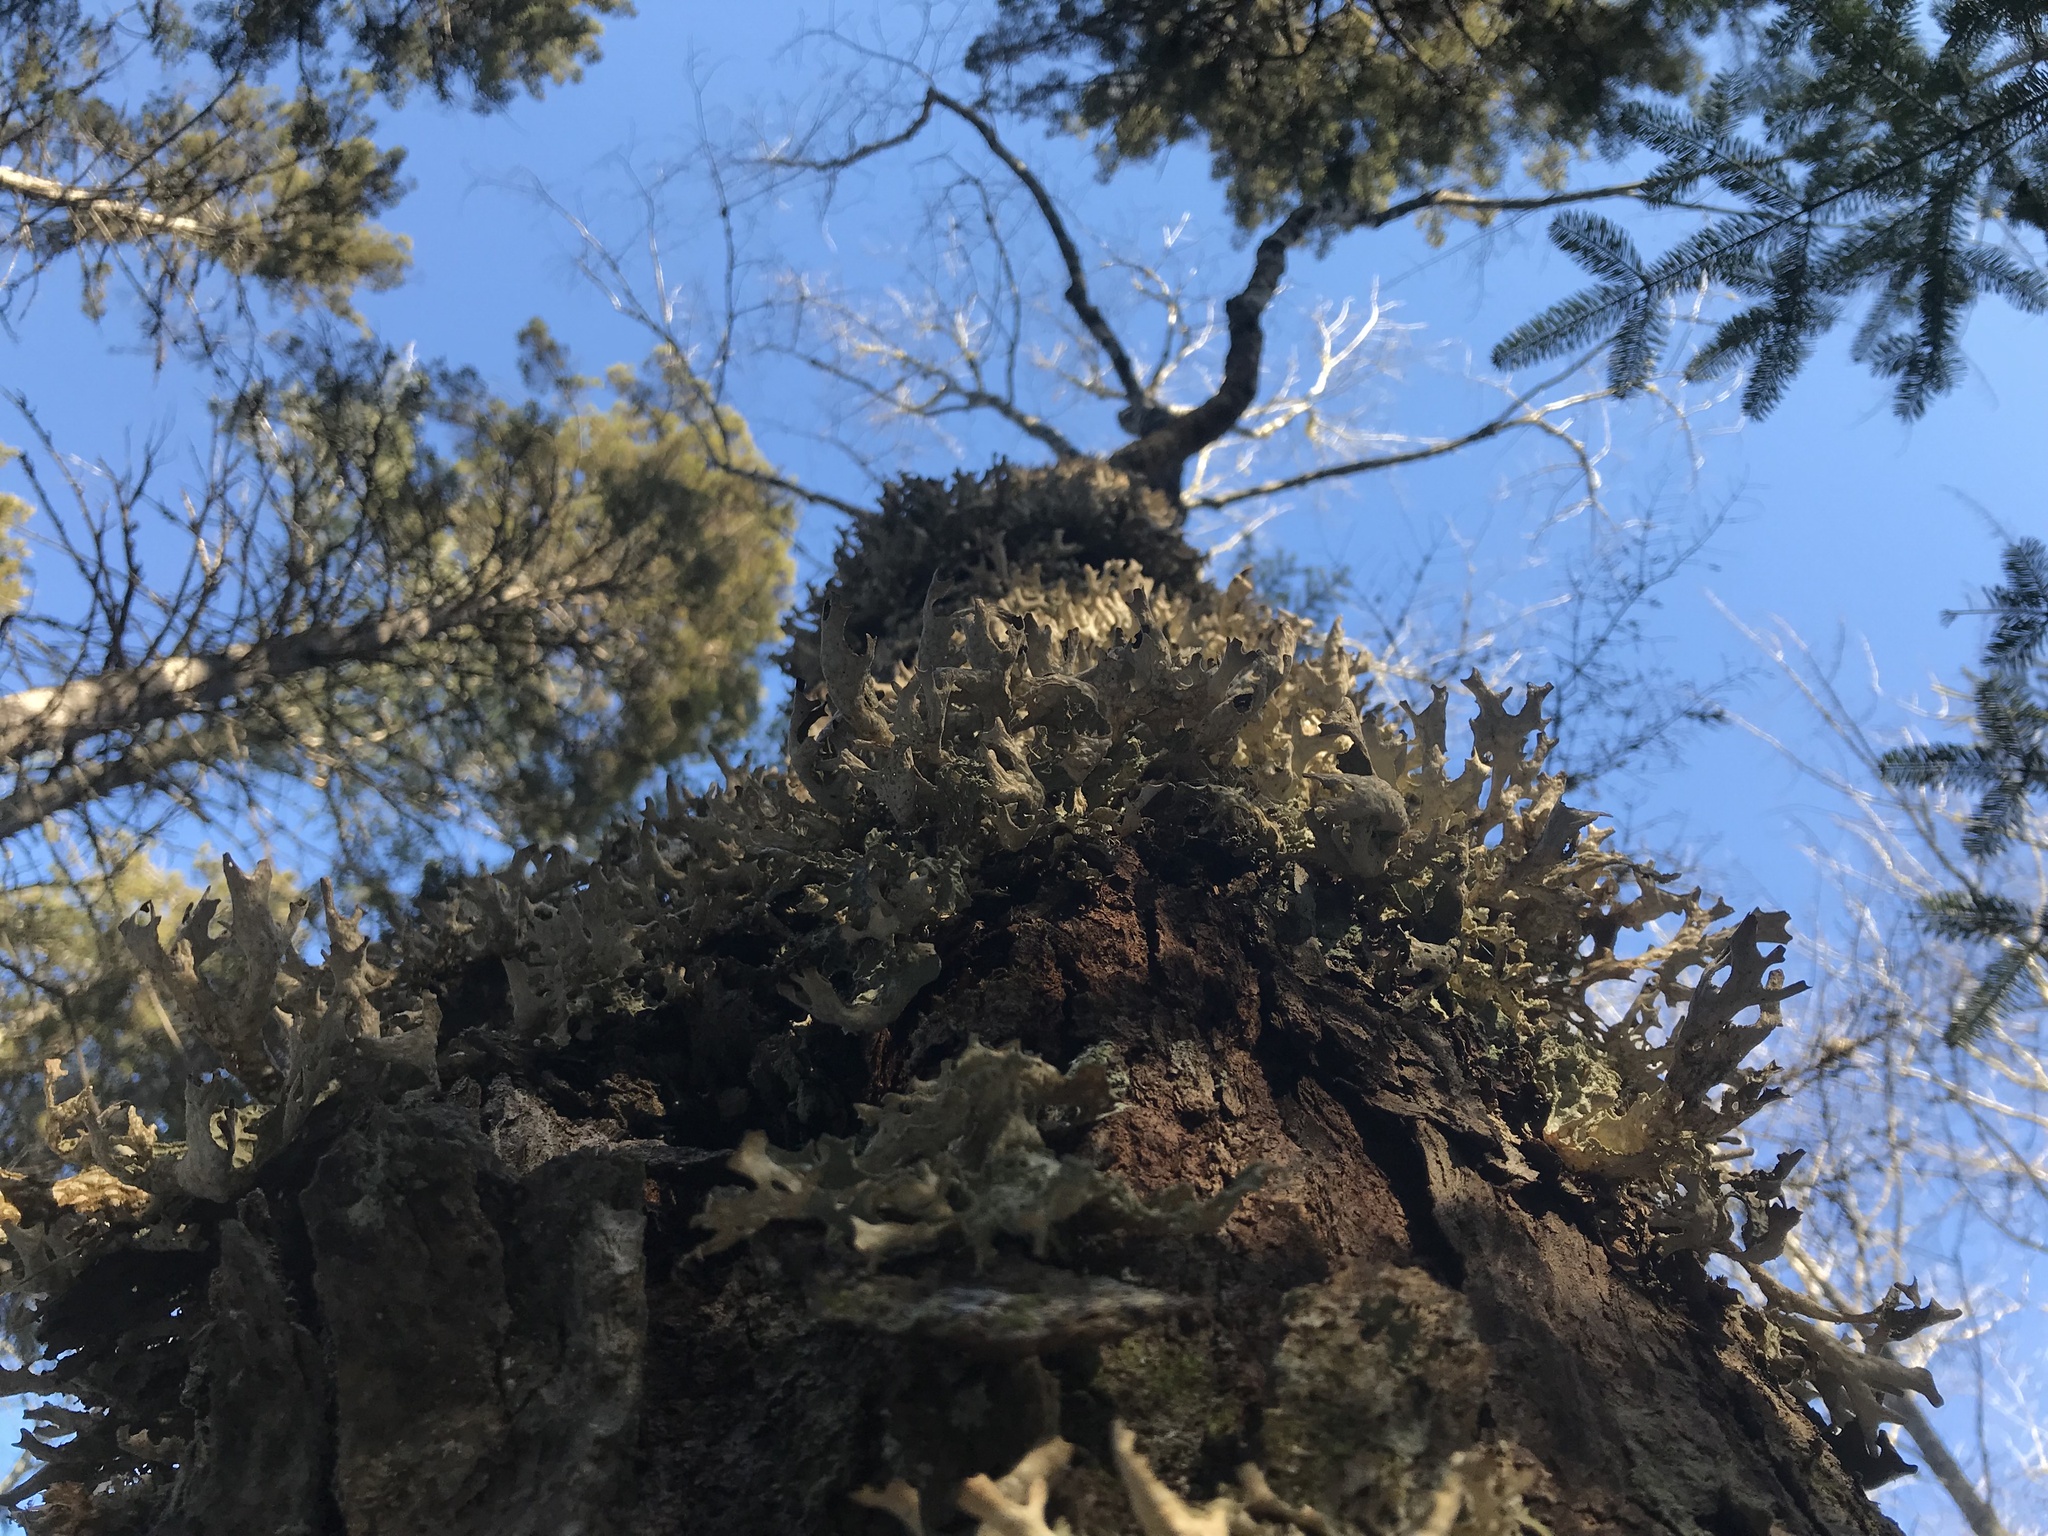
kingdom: Fungi
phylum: Ascomycota
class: Lecanoromycetes
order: Peltigerales
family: Lobariaceae
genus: Lobaria
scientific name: Lobaria pulmonaria
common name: Lungwort
